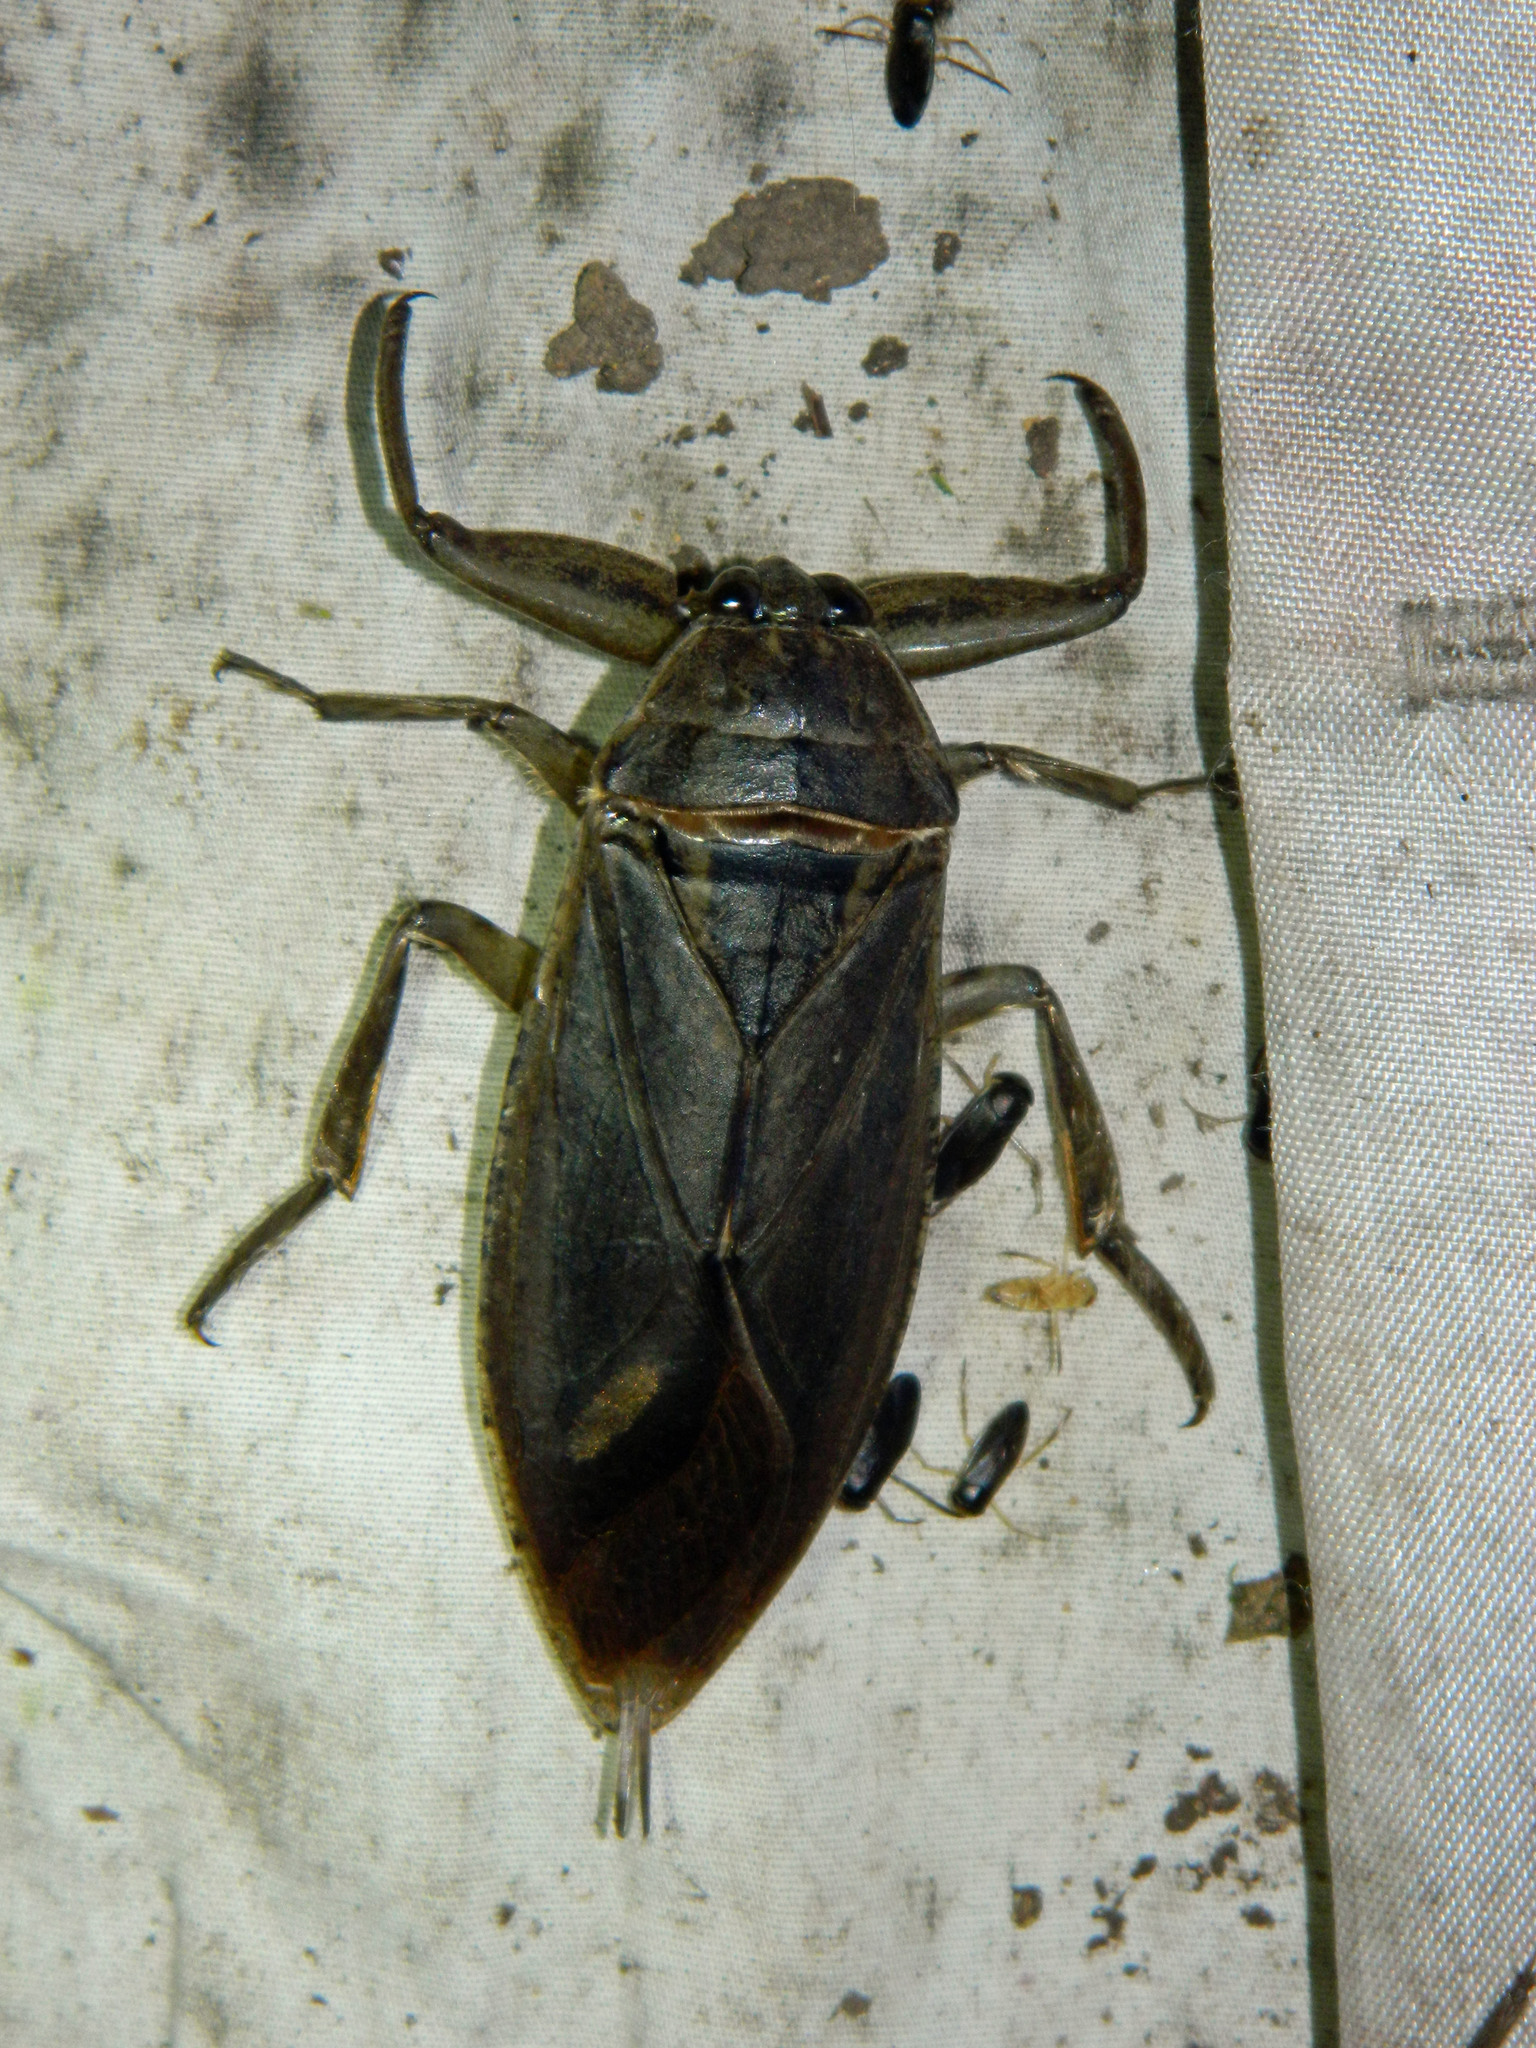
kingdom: Animalia
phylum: Arthropoda
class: Insecta
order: Hemiptera
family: Belostomatidae
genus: Lethocerus
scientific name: Lethocerus americanus
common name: Giant water bug
